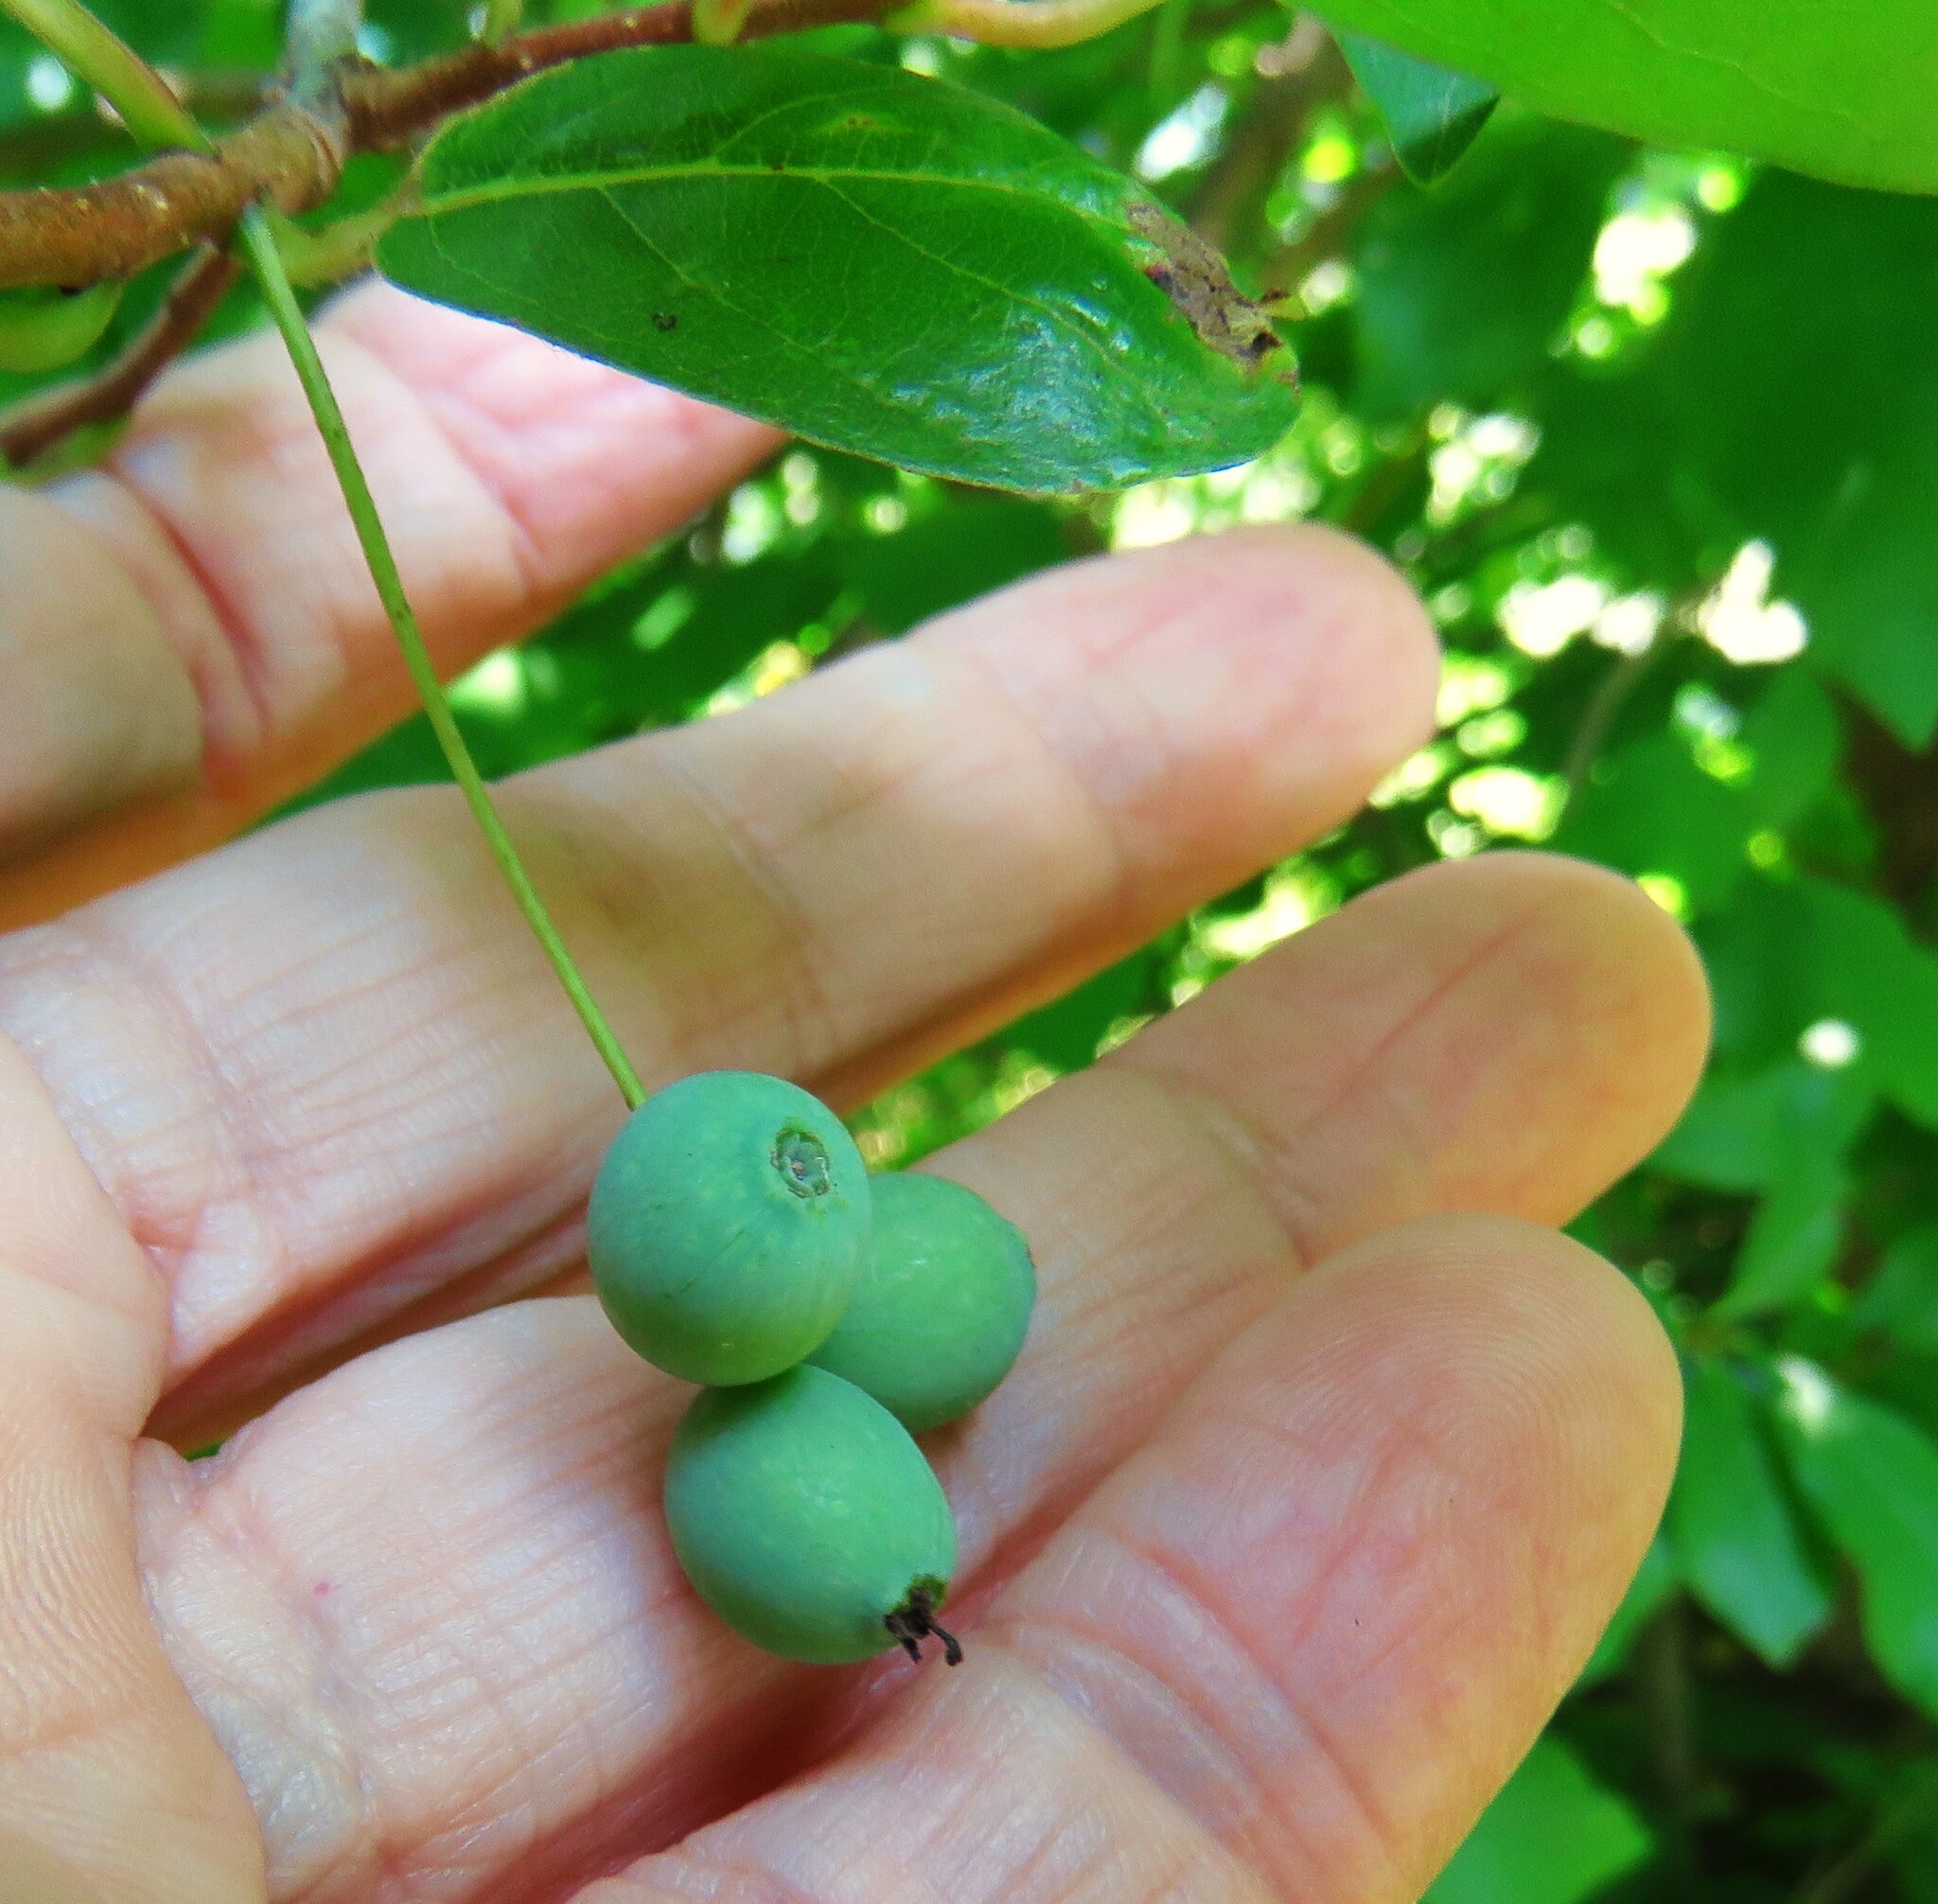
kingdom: Plantae
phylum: Tracheophyta
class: Magnoliopsida
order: Cornales
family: Nyssaceae
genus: Nyssa
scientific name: Nyssa sylvatica
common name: Black tupelo
